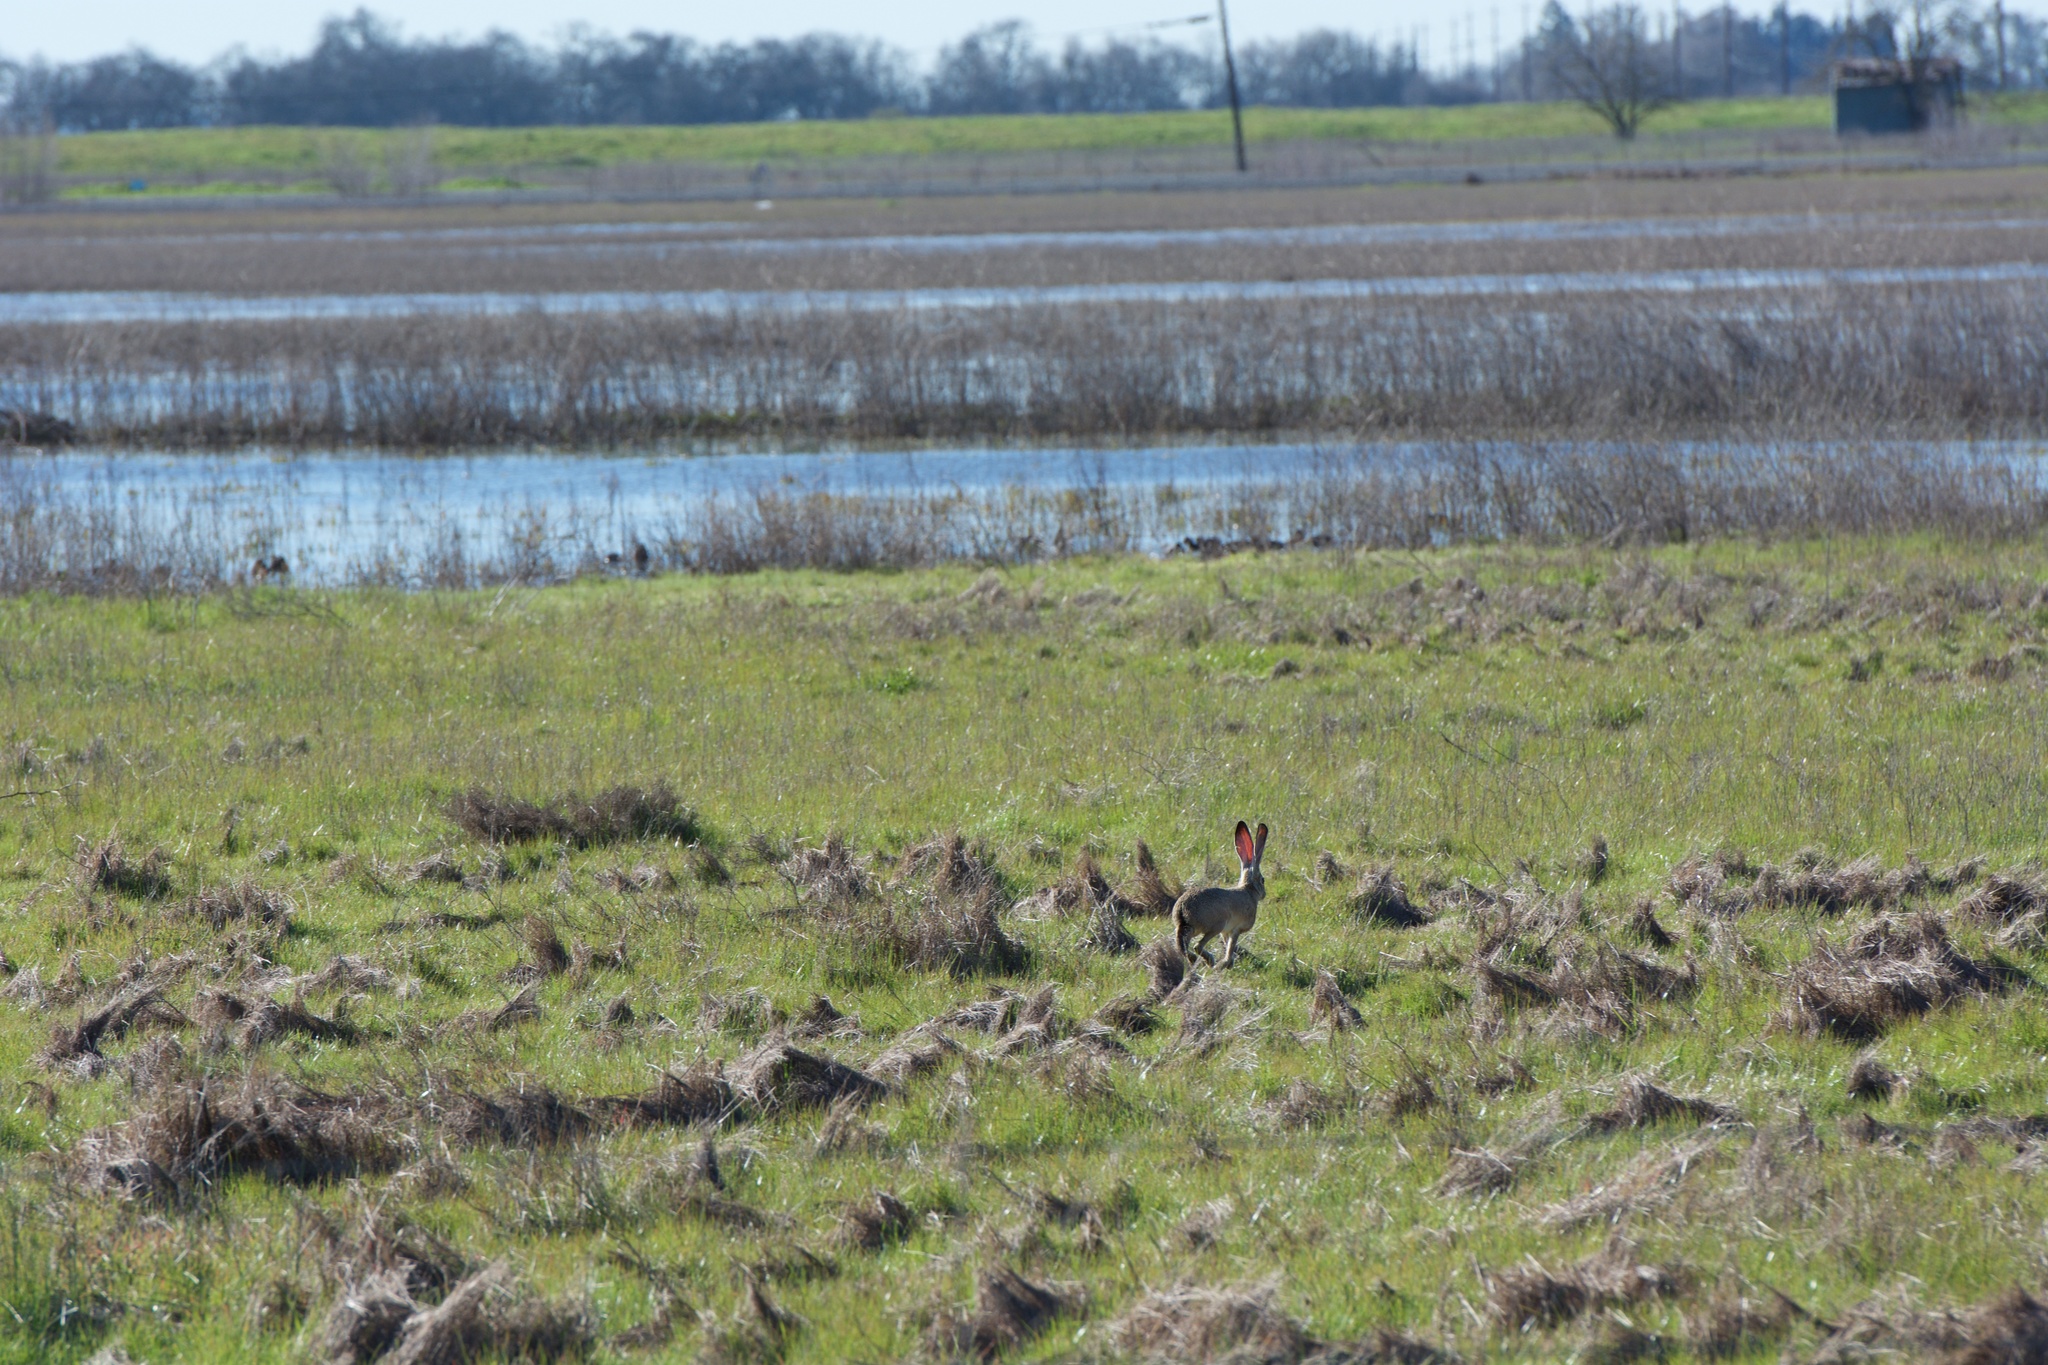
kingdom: Animalia
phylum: Chordata
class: Mammalia
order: Lagomorpha
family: Leporidae
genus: Lepus
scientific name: Lepus californicus
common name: Black-tailed jackrabbit
